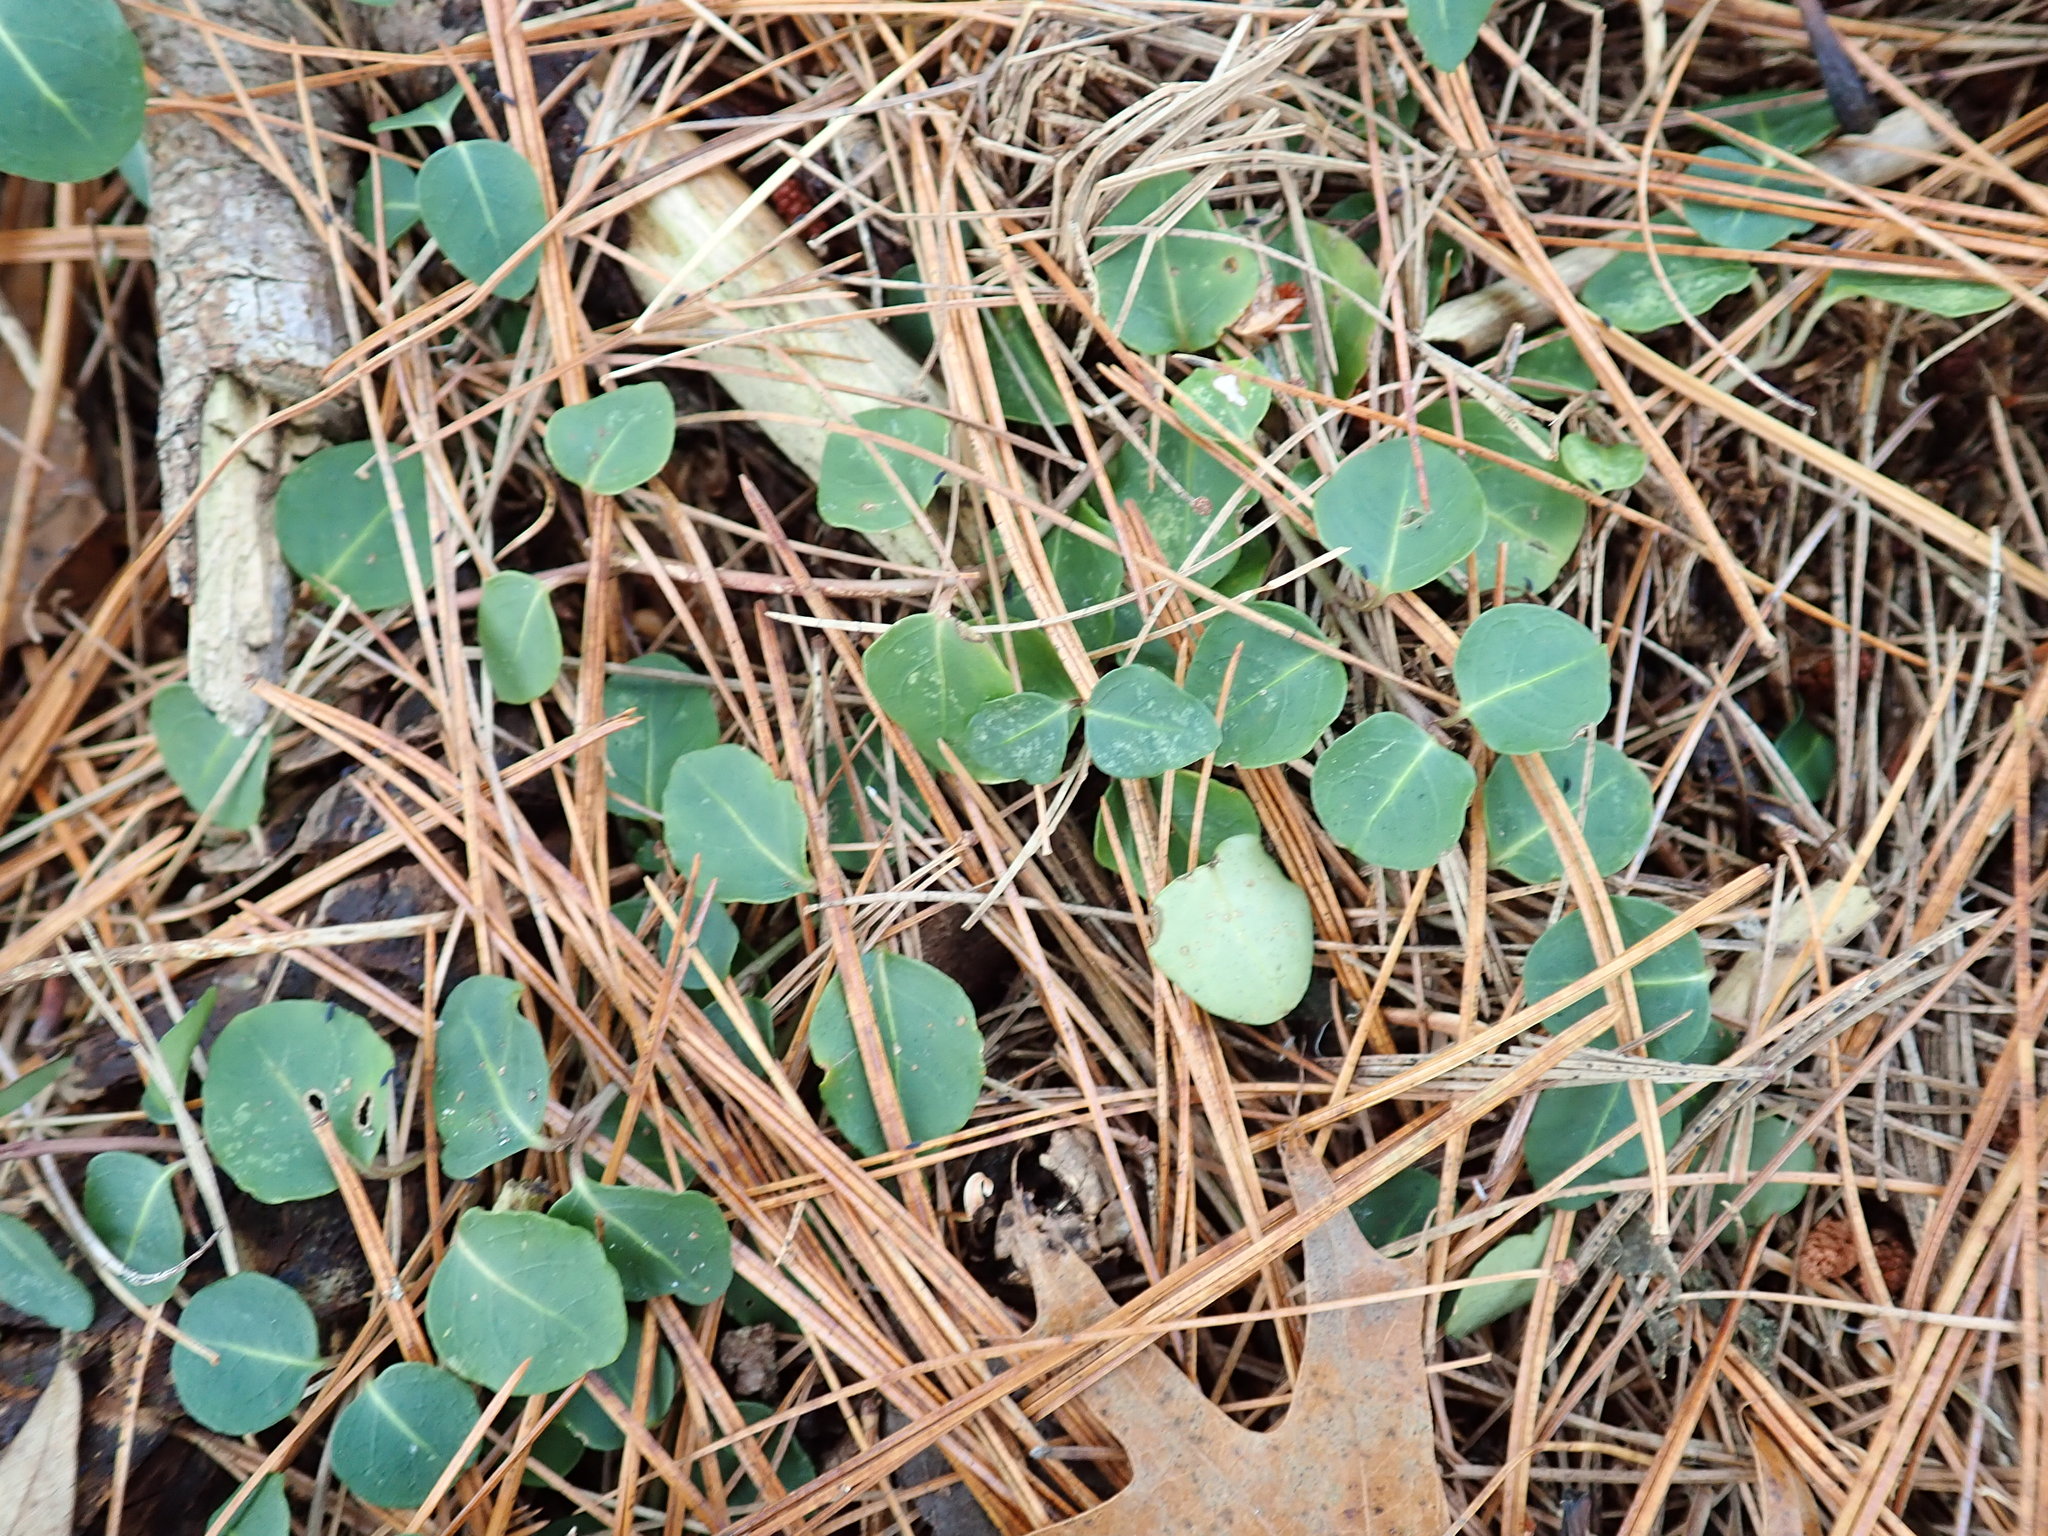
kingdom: Plantae
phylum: Tracheophyta
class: Magnoliopsida
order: Gentianales
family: Rubiaceae
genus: Mitchella
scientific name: Mitchella repens
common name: Partridge-berry
